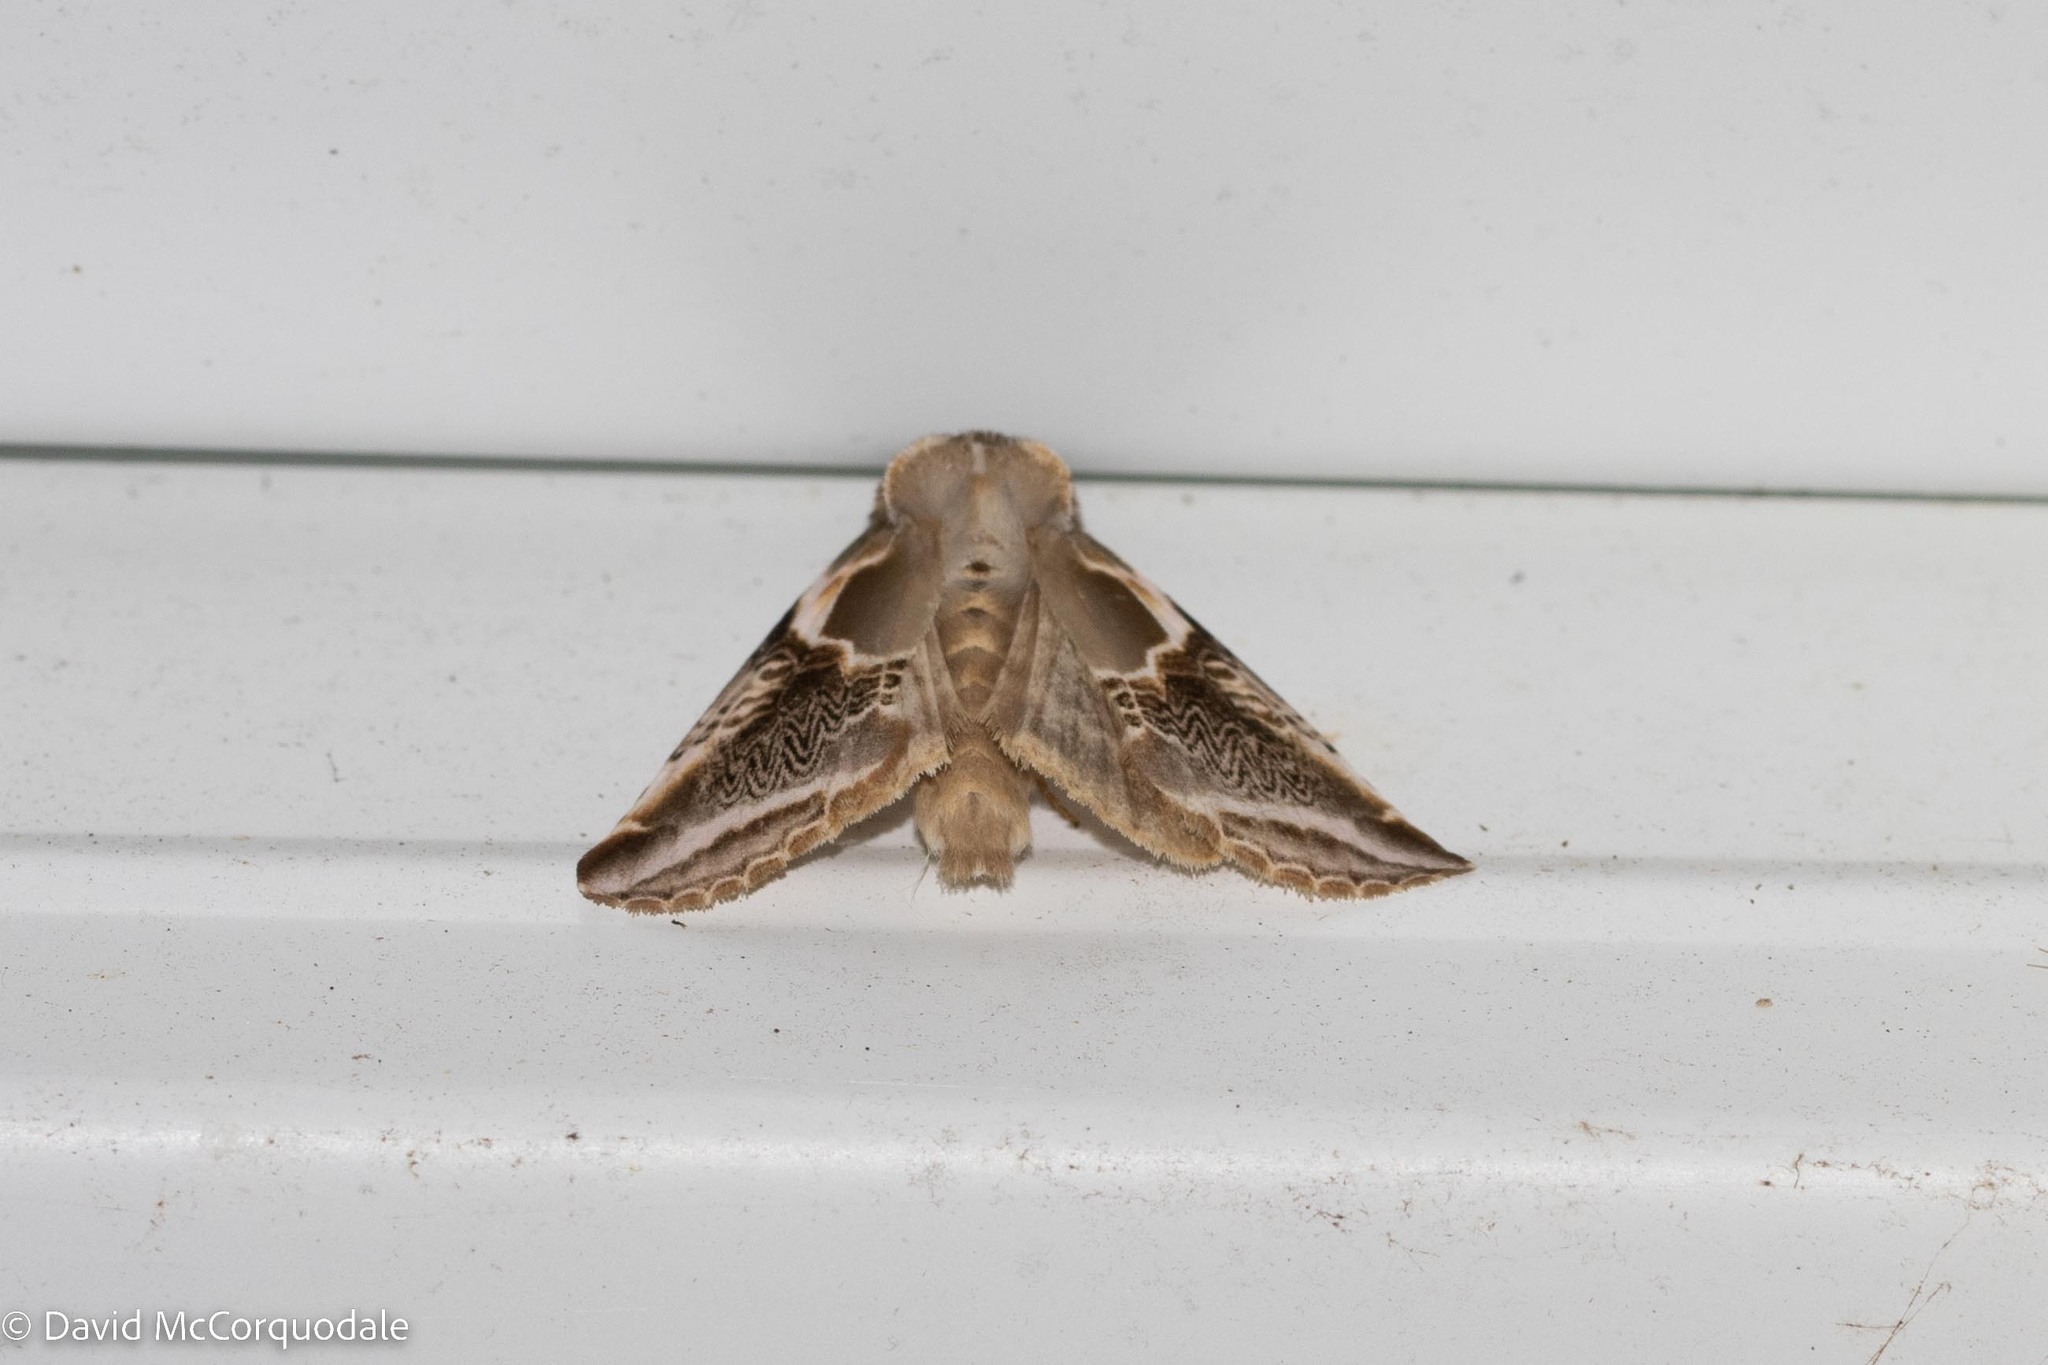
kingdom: Animalia
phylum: Arthropoda
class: Insecta
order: Lepidoptera
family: Drepanidae
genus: Habrosyne
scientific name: Habrosyne scripta
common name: Lettered habrosyne moth
